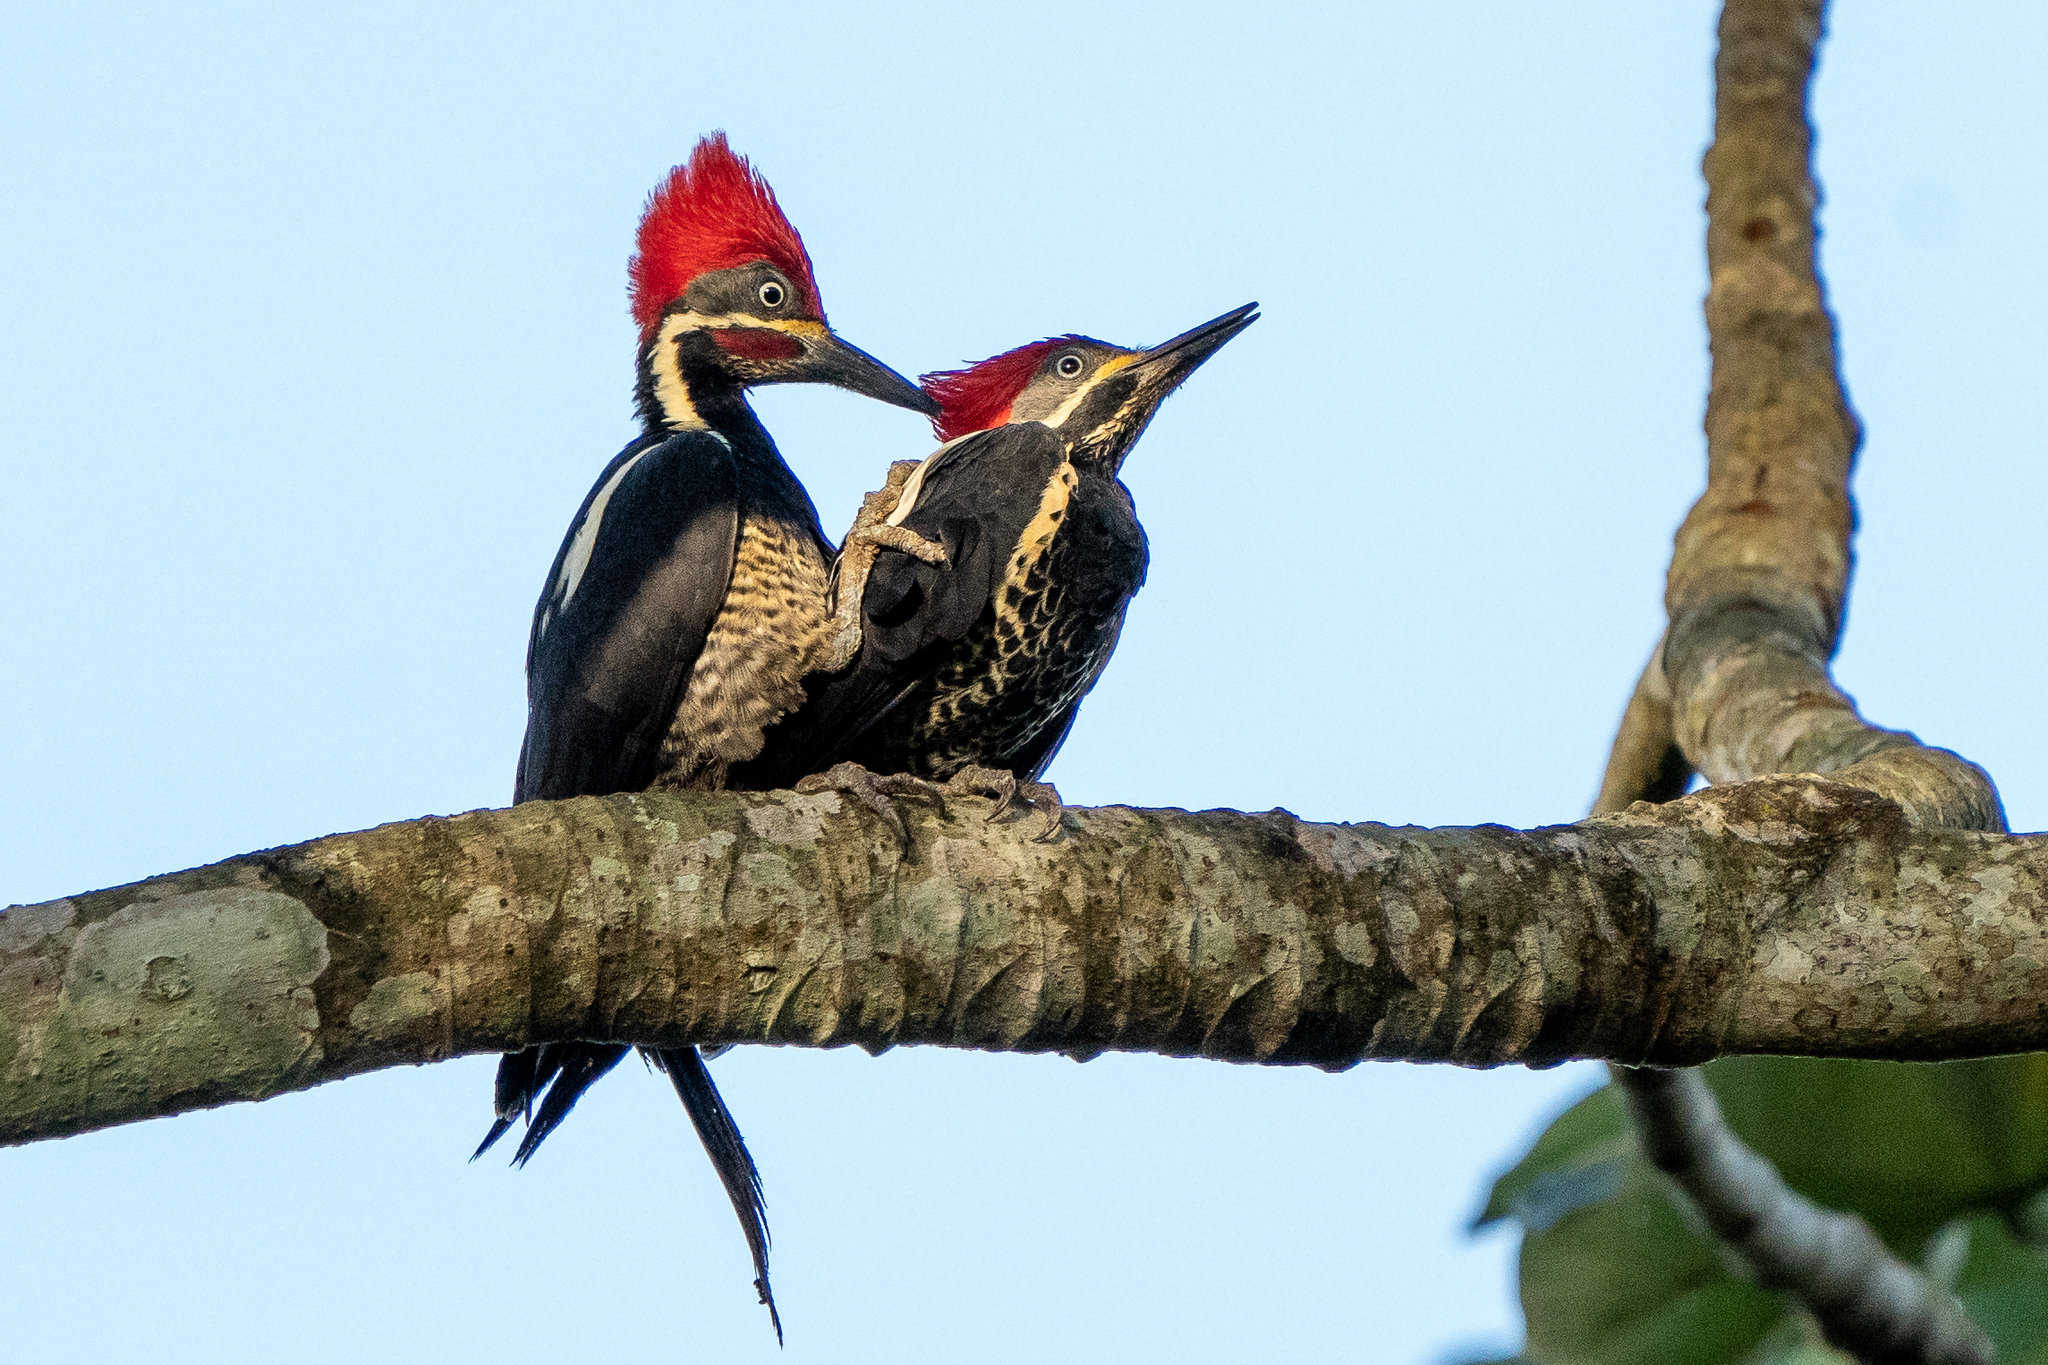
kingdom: Animalia
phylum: Chordata
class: Aves
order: Piciformes
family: Picidae
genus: Dryocopus
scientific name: Dryocopus lineatus
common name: Lineated woodpecker
